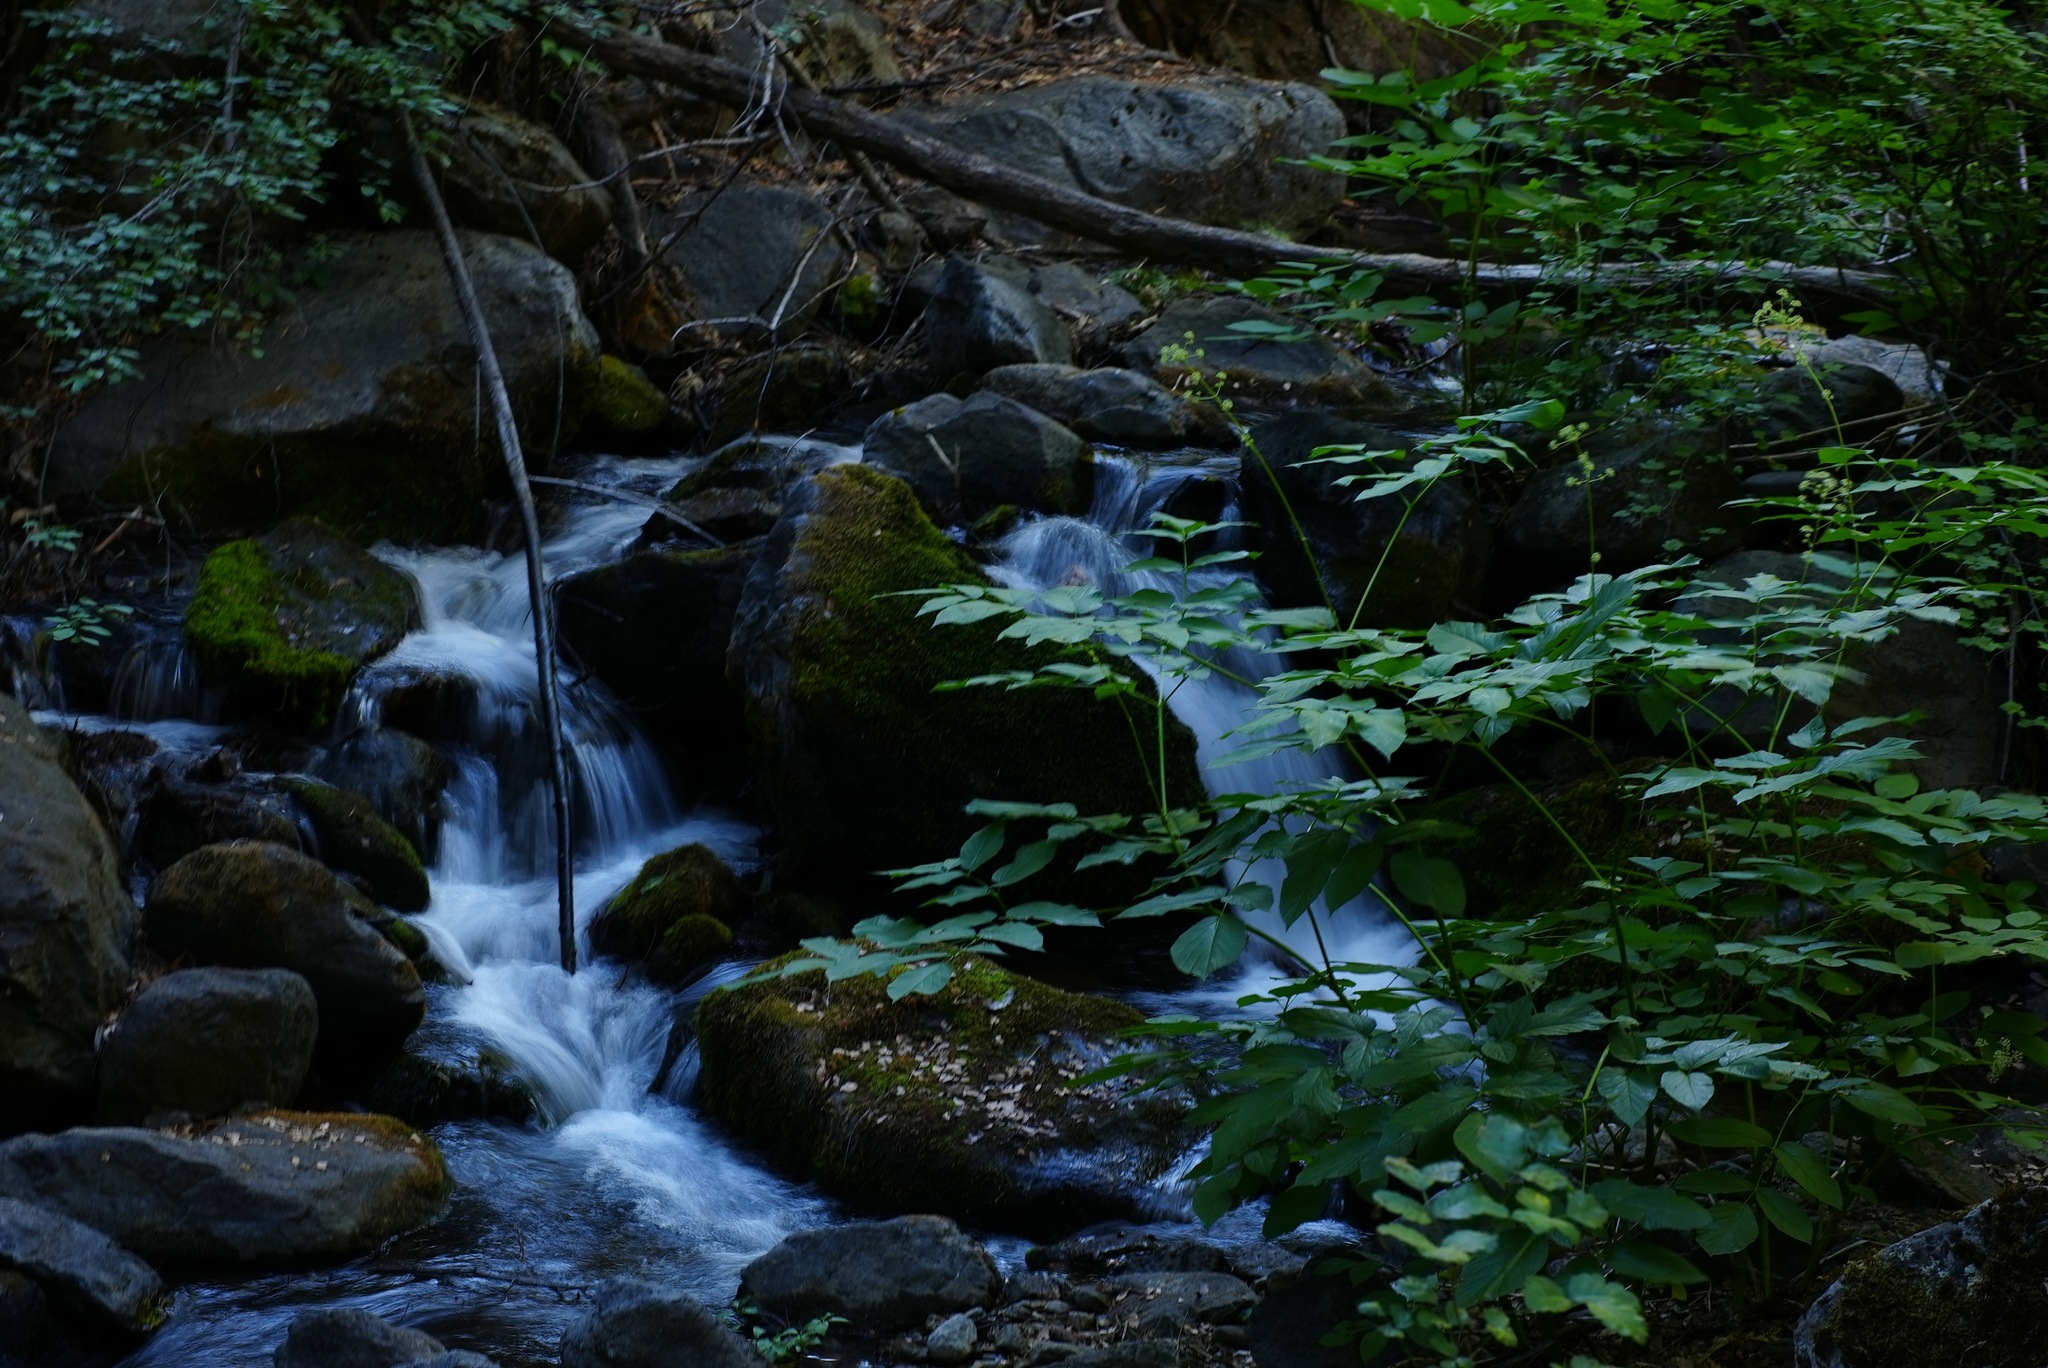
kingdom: Plantae
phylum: Tracheophyta
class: Magnoliopsida
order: Apiales
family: Araliaceae
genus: Aralia
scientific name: Aralia californica
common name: California-ginseng
